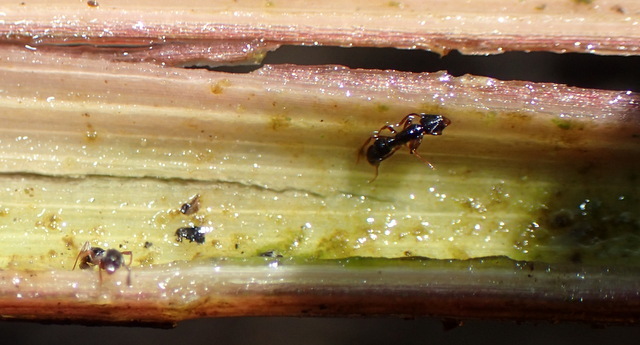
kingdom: Animalia
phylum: Arthropoda
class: Insecta
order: Hymenoptera
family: Formicidae
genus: Hypoponera
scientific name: Hypoponera opaciceps
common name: Granulate mini-ponerine ant
